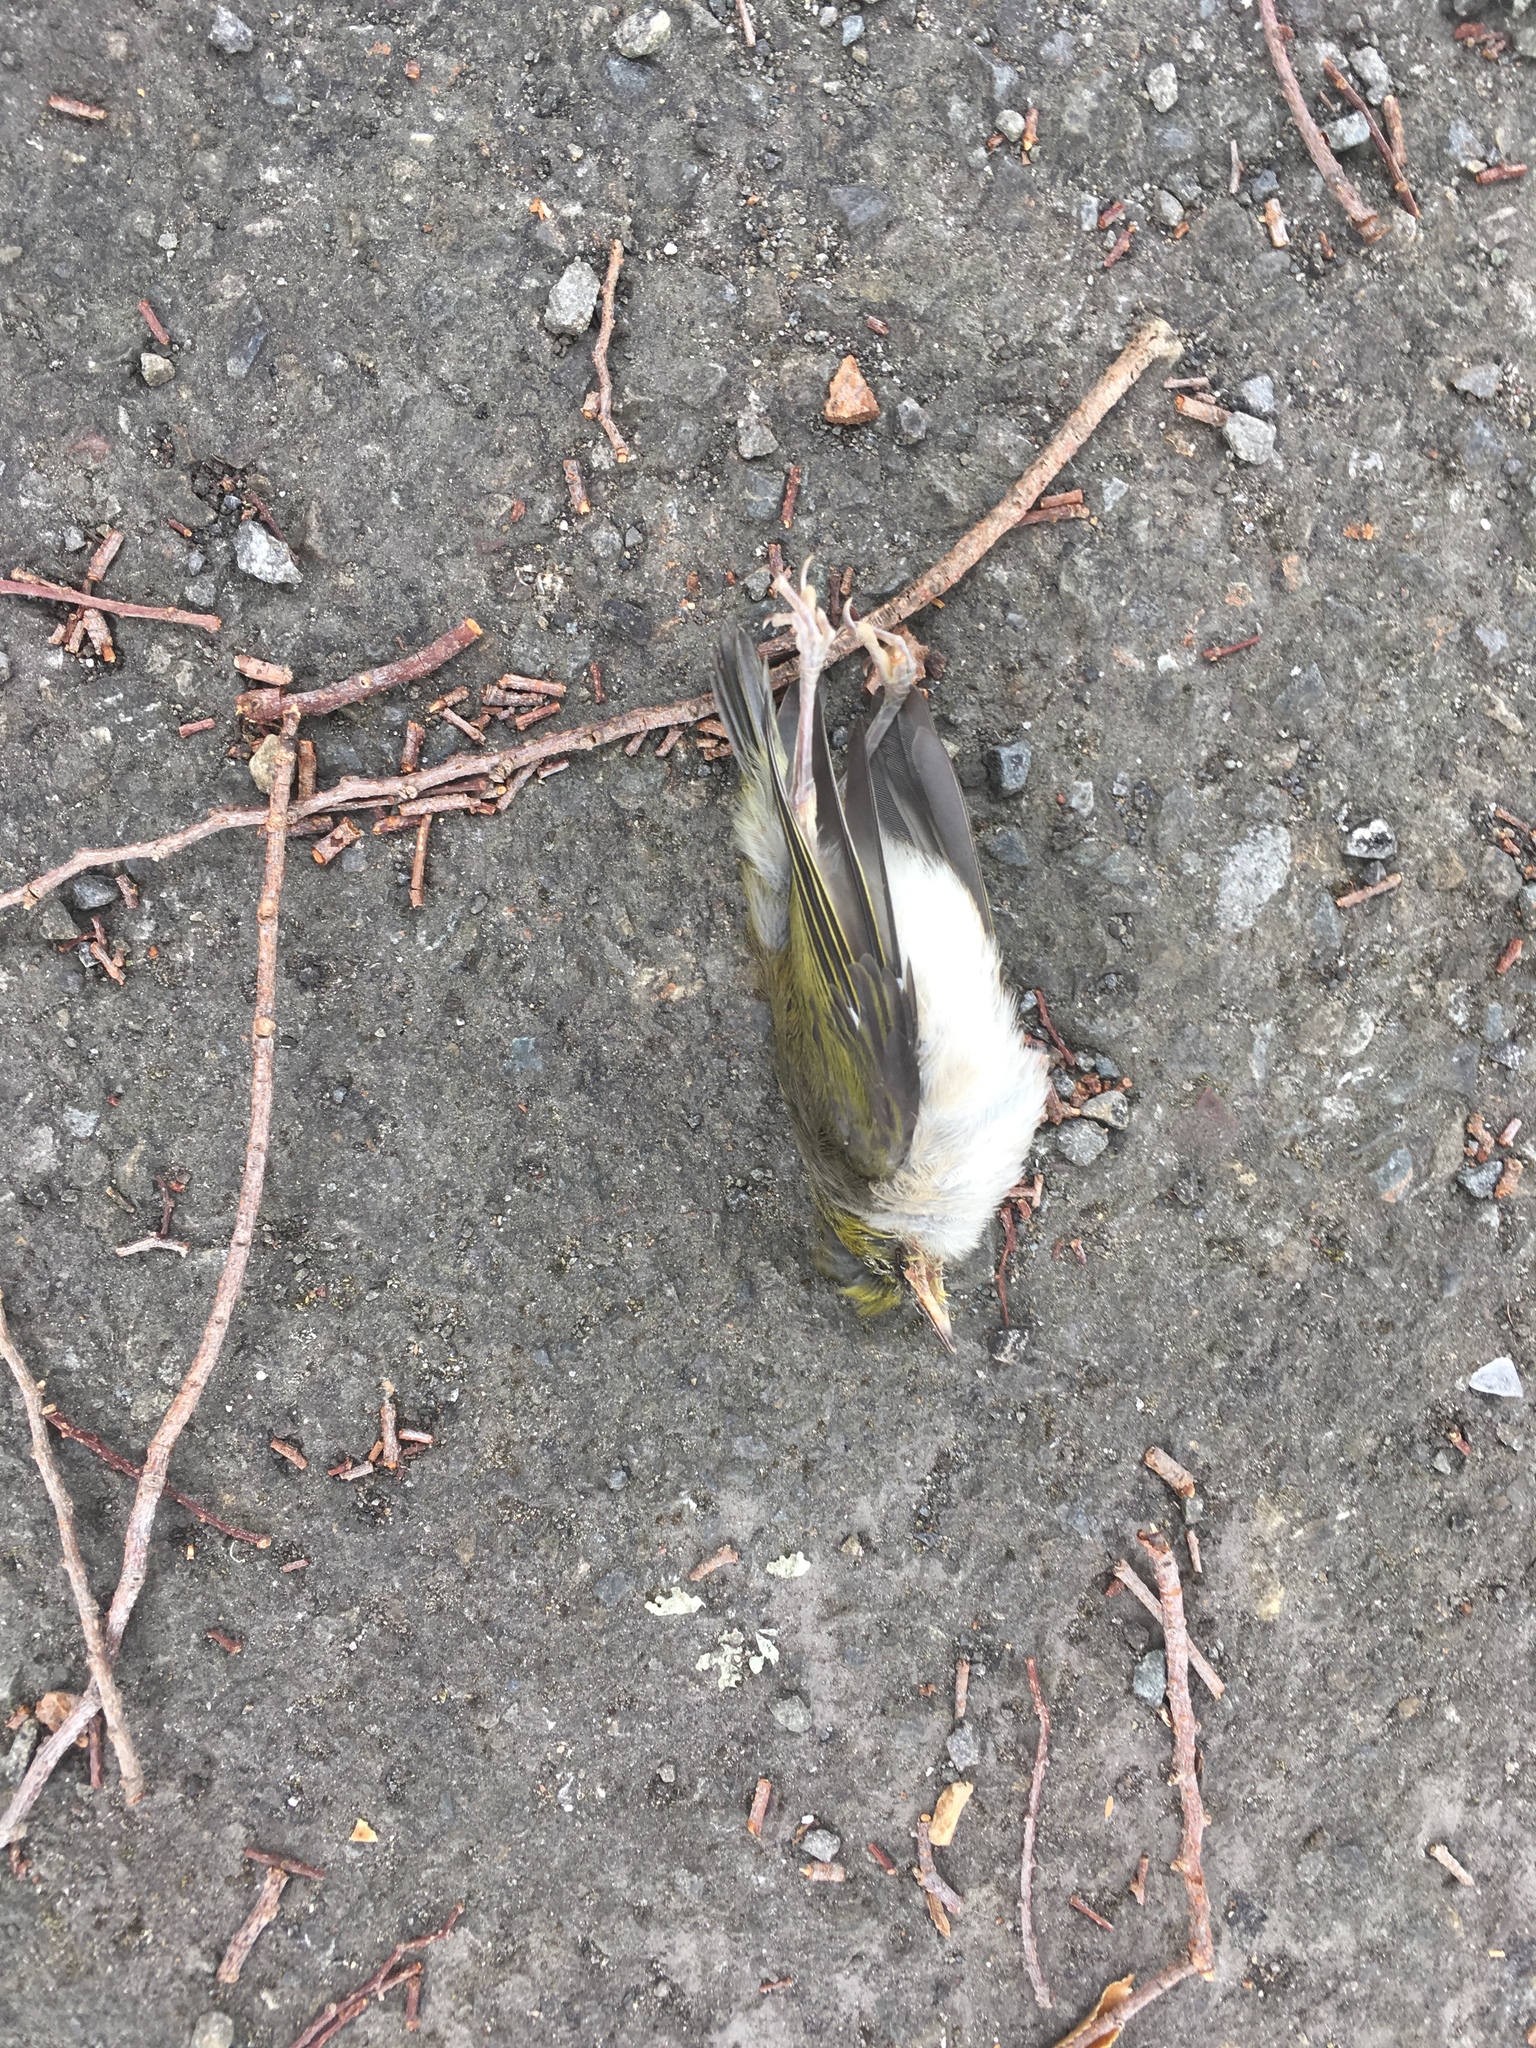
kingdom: Animalia
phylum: Chordata
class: Aves
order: Passeriformes
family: Zosteropidae
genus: Zosterops
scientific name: Zosterops lateralis
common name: Silvereye
